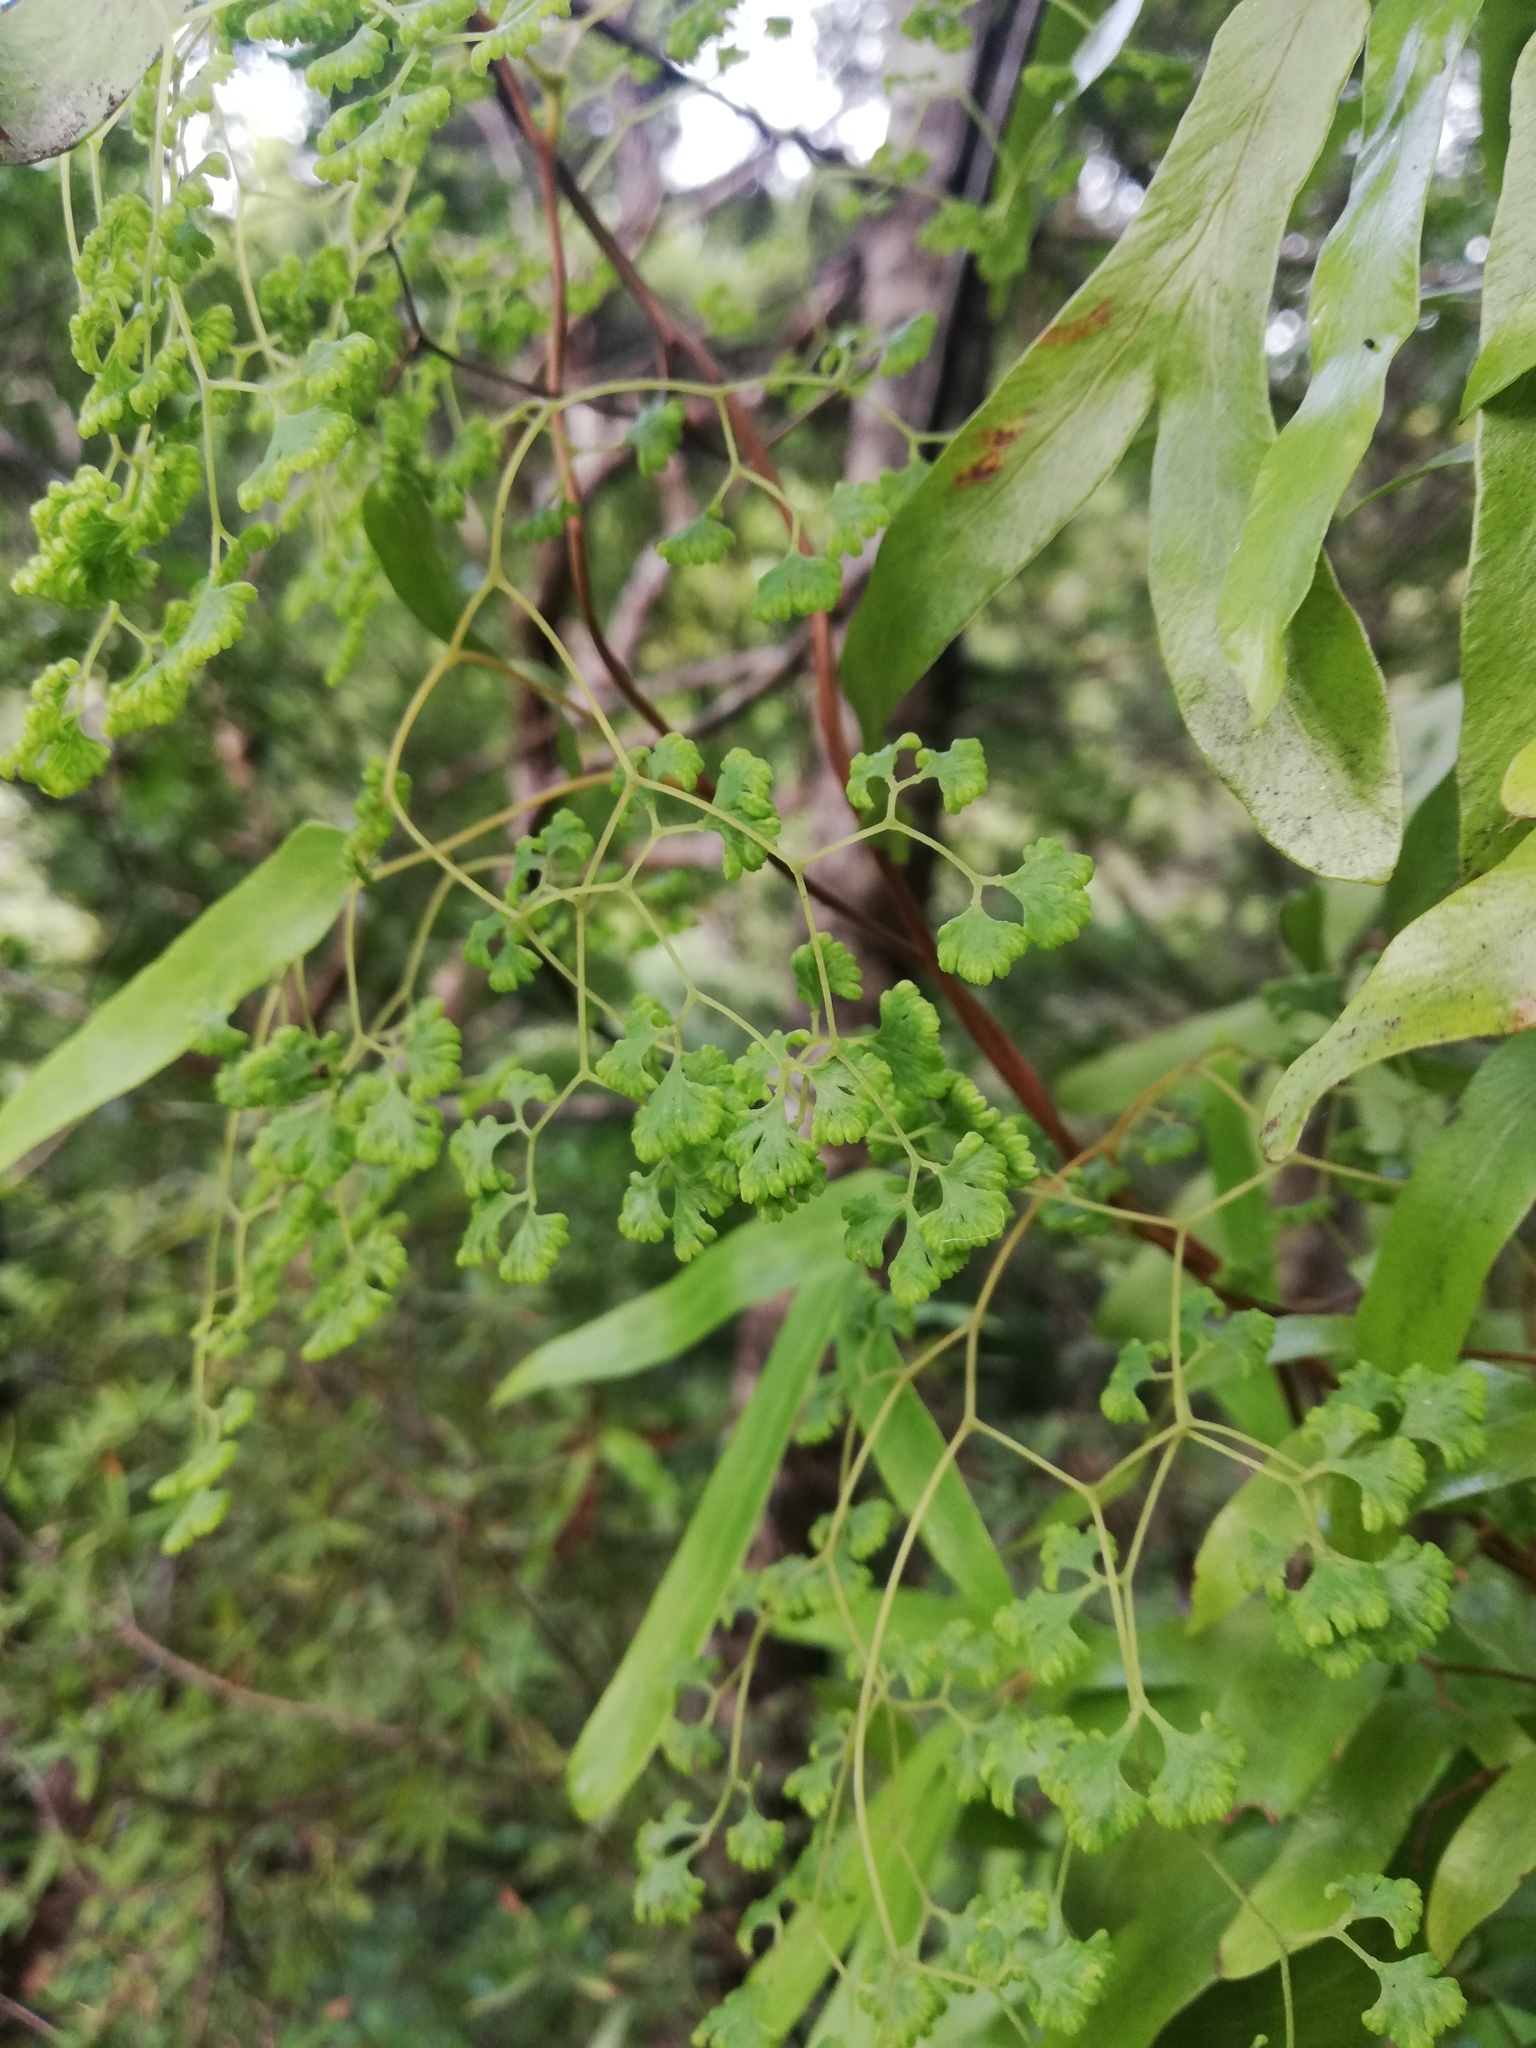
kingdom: Plantae
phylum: Tracheophyta
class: Polypodiopsida
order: Schizaeales
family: Lygodiaceae
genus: Lygodium
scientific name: Lygodium articulatum
